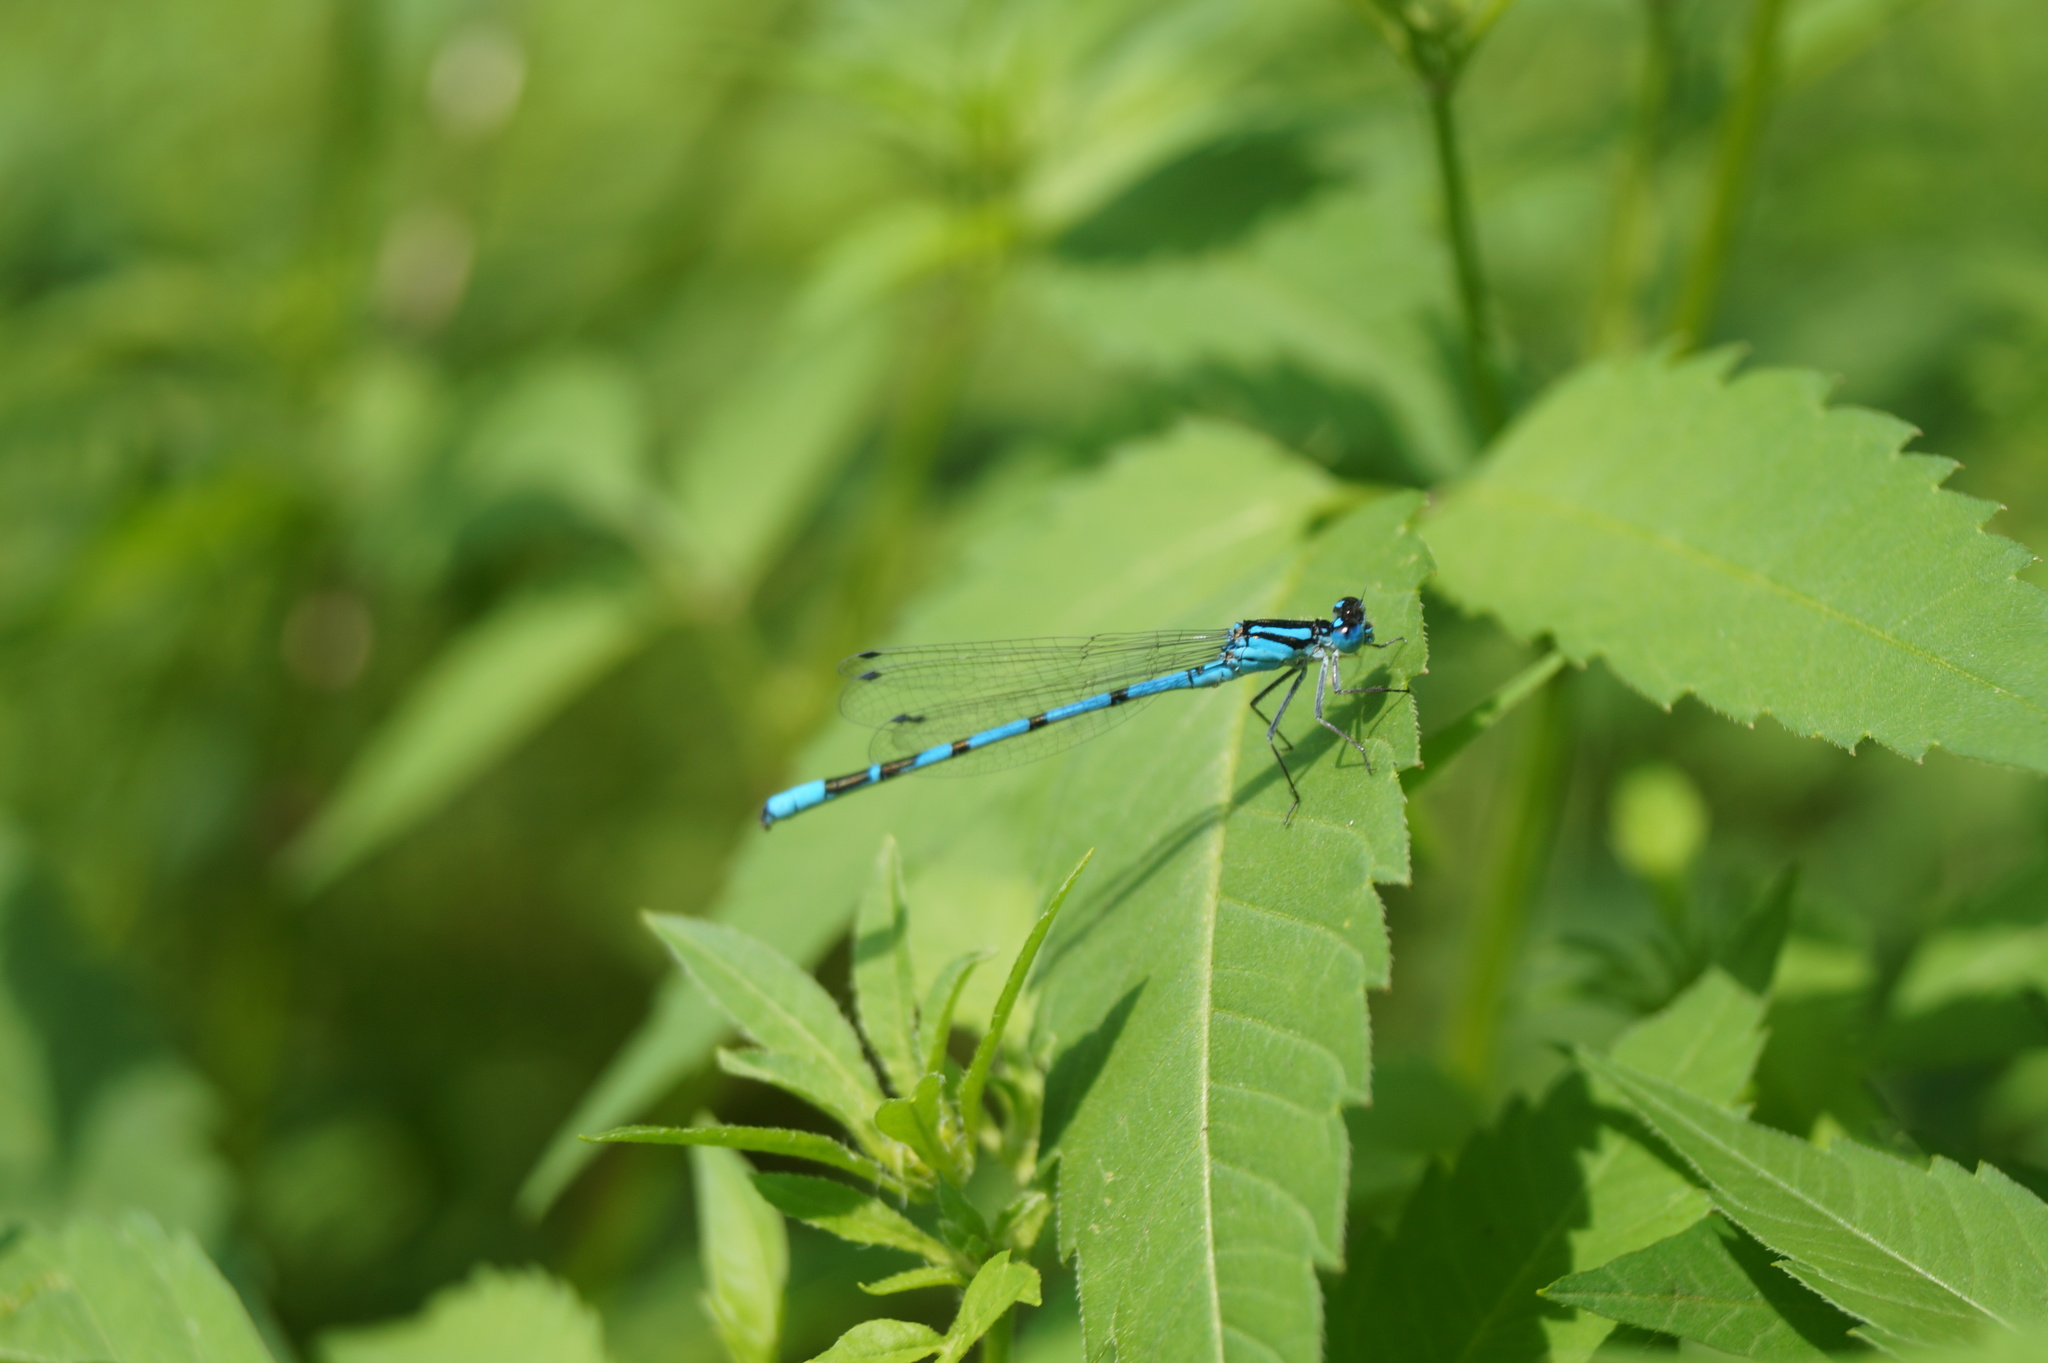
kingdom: Animalia
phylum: Arthropoda
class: Insecta
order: Odonata
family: Coenagrionidae
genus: Enallagma
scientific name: Enallagma cyathigerum
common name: Common blue damselfly
